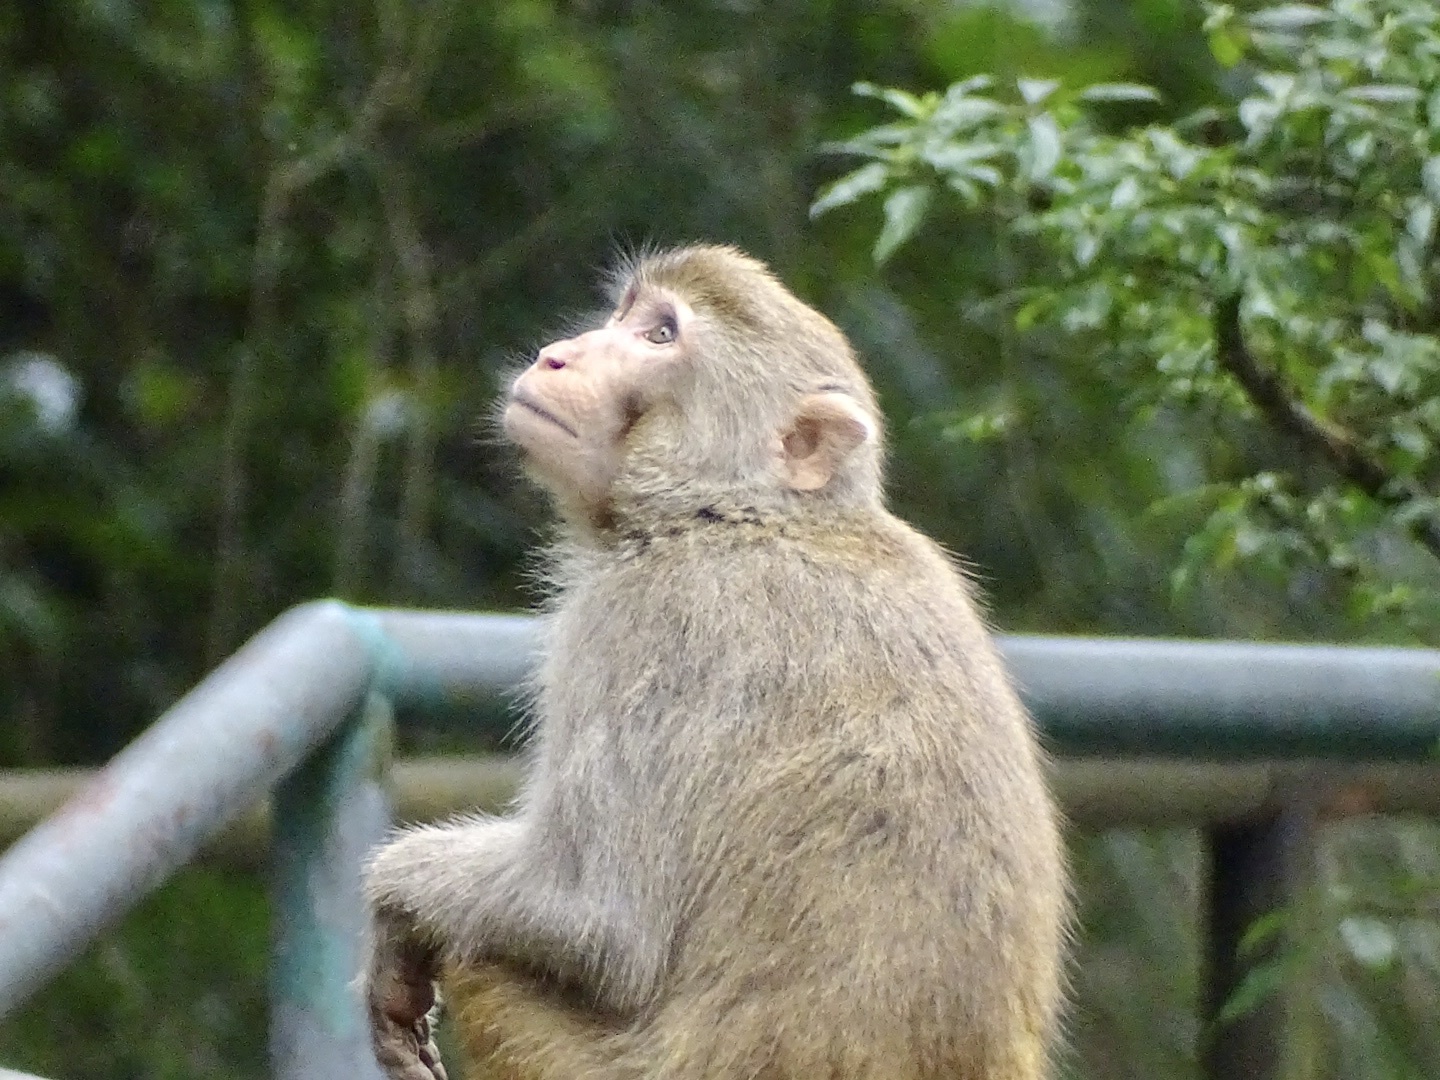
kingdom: Animalia
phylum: Chordata
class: Mammalia
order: Primates
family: Cercopithecidae
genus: Macaca
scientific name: Macaca mulatta
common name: Rhesus monkey
